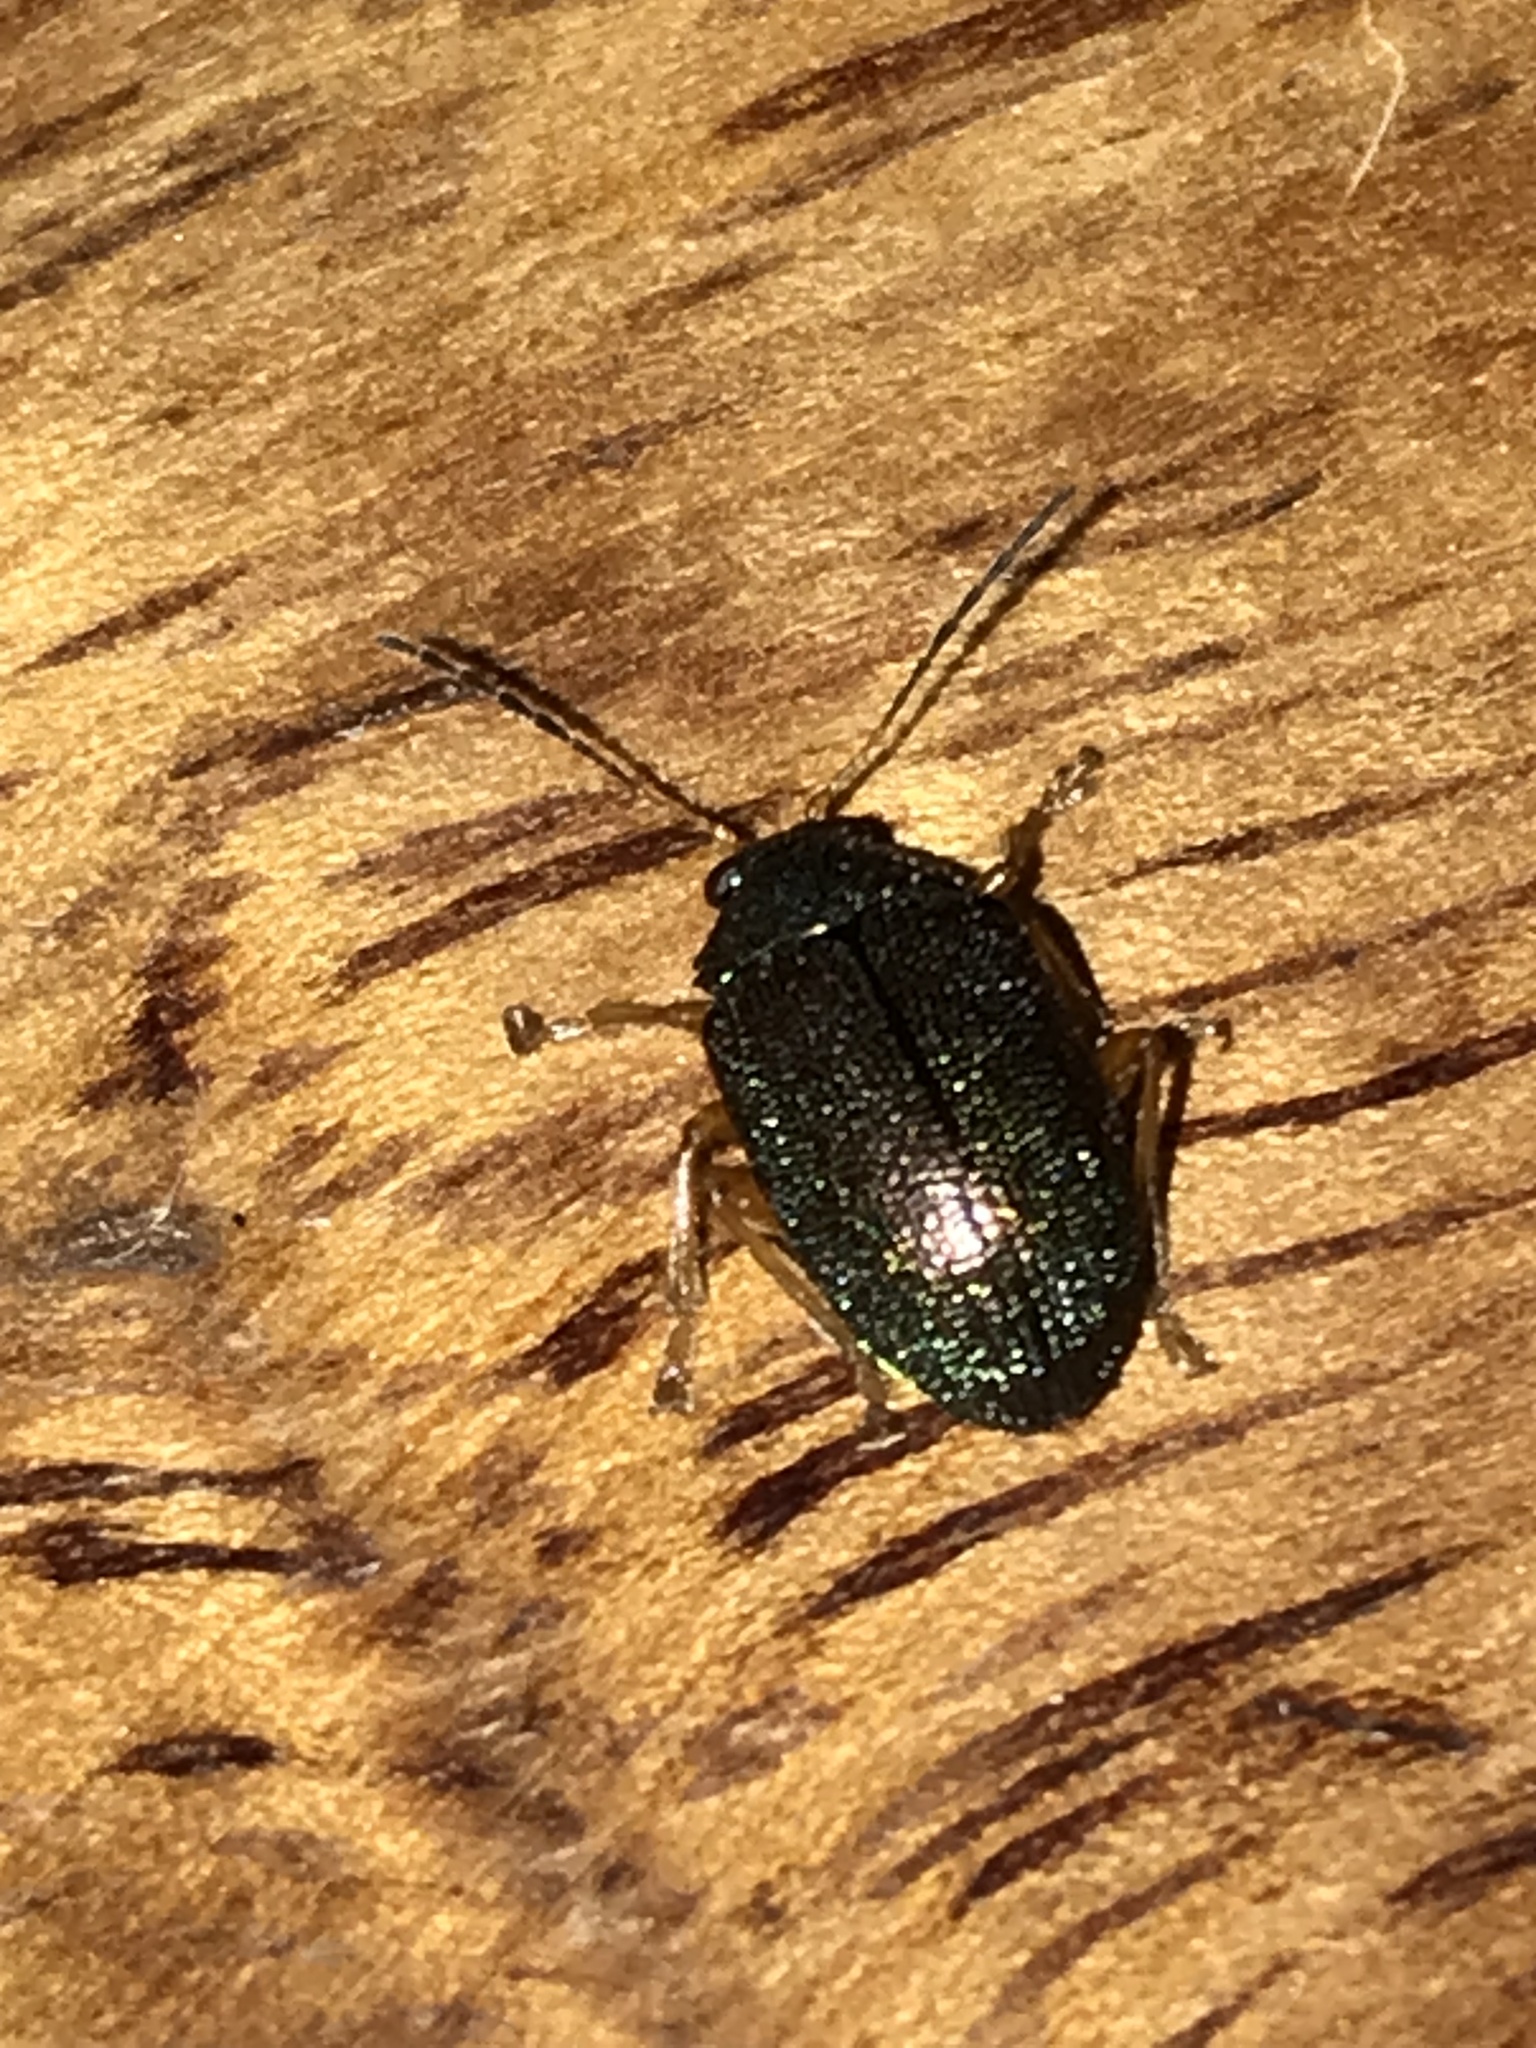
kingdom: Animalia
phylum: Arthropoda
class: Insecta
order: Coleoptera
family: Chrysomelidae
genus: Colaspis
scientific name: Colaspis
